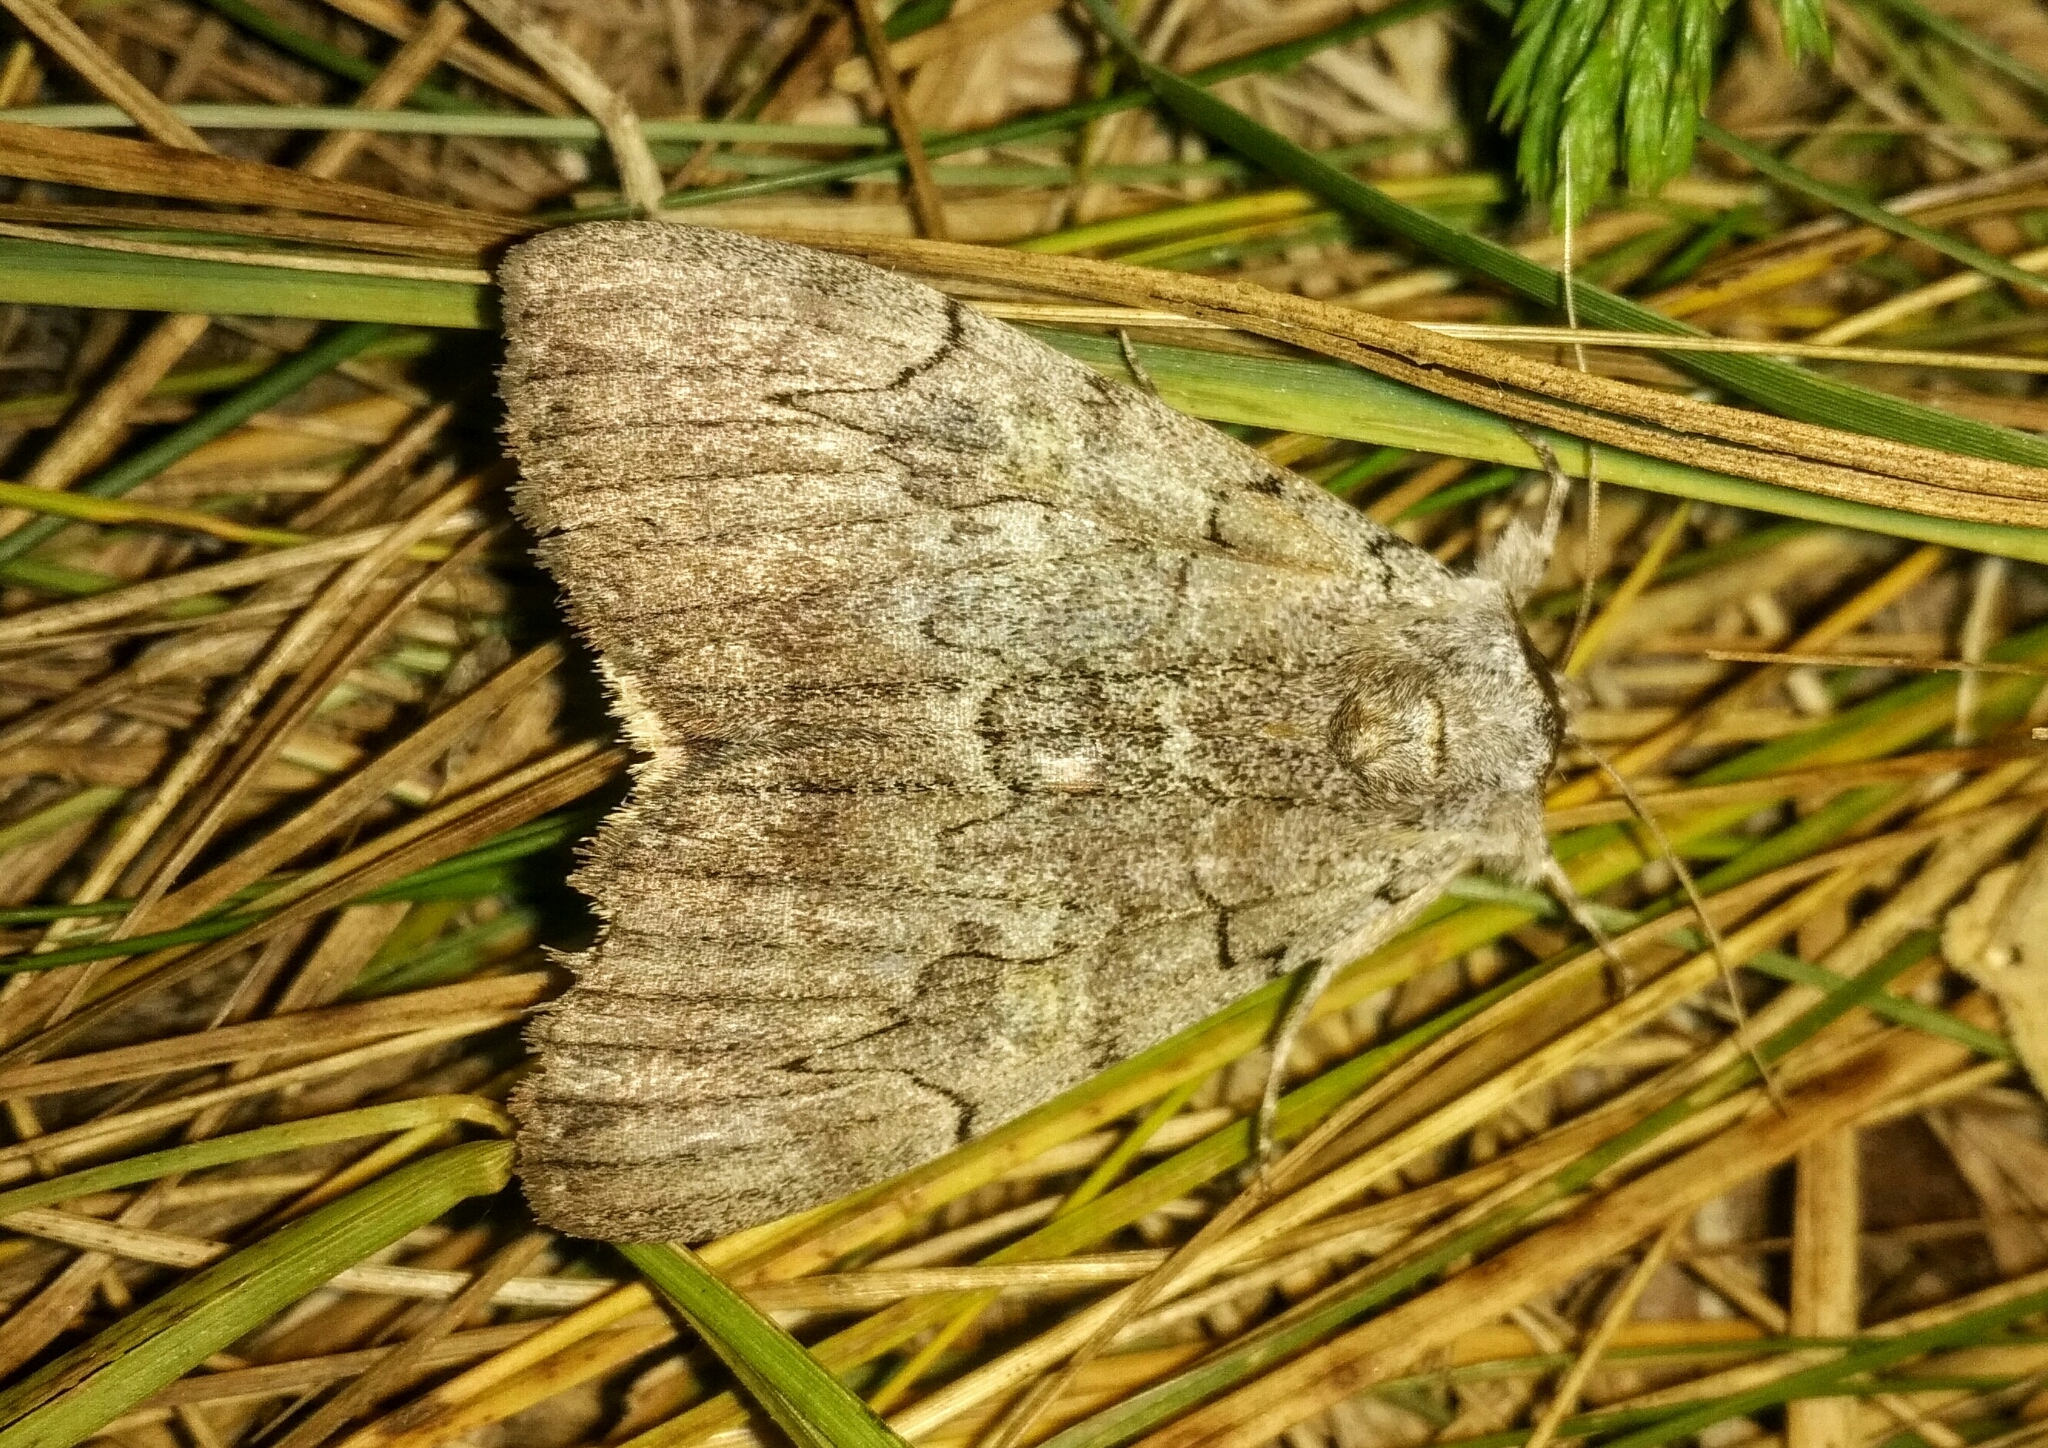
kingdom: Animalia
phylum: Arthropoda
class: Insecta
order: Lepidoptera
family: Erebidae
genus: Catocala
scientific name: Catocala concumbens
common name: Pink underwing
